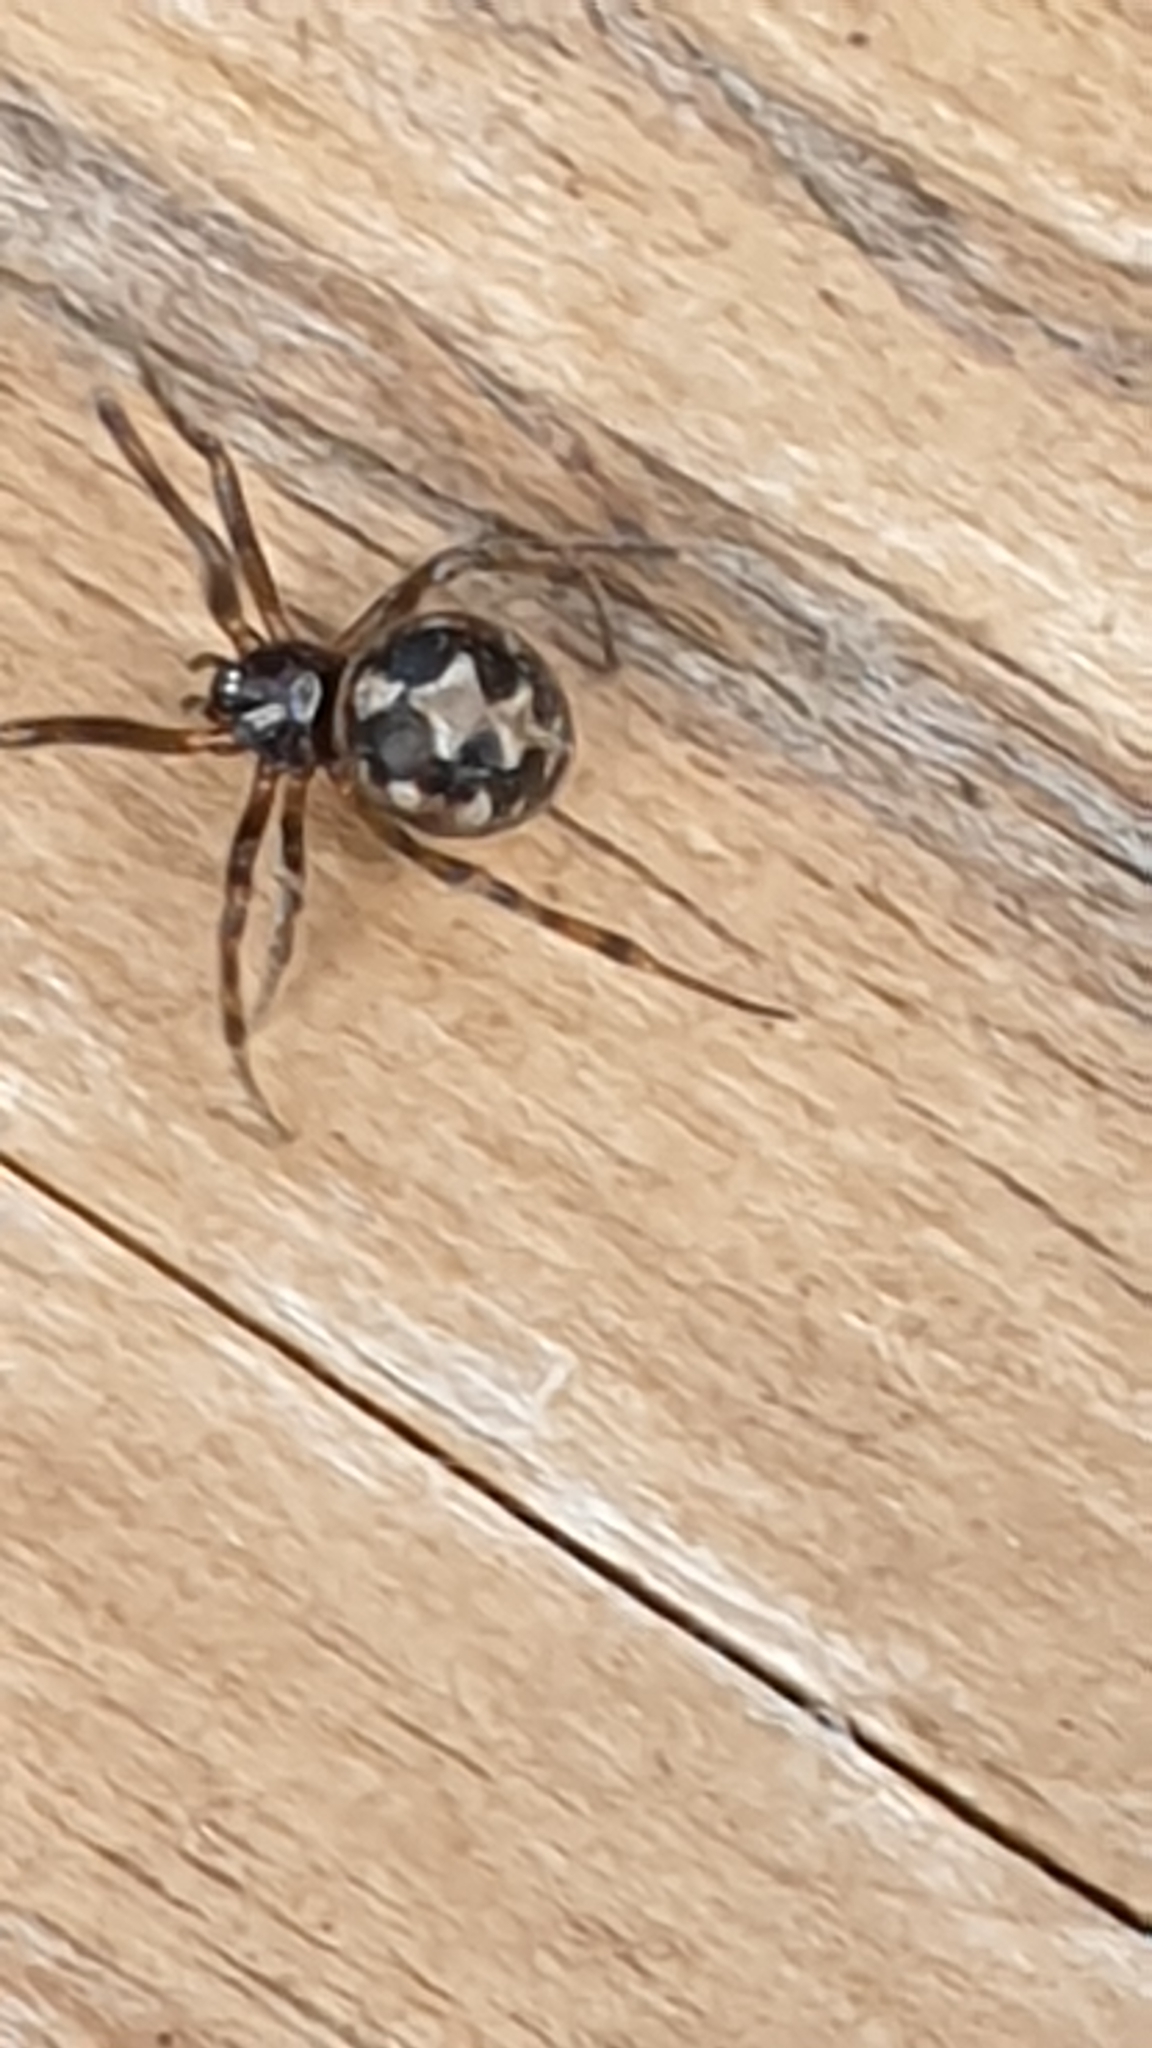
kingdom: Animalia
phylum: Arthropoda
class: Arachnida
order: Araneae
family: Theridiidae
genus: Steatoda
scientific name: Steatoda triangulosa
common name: Triangulate bud spider
